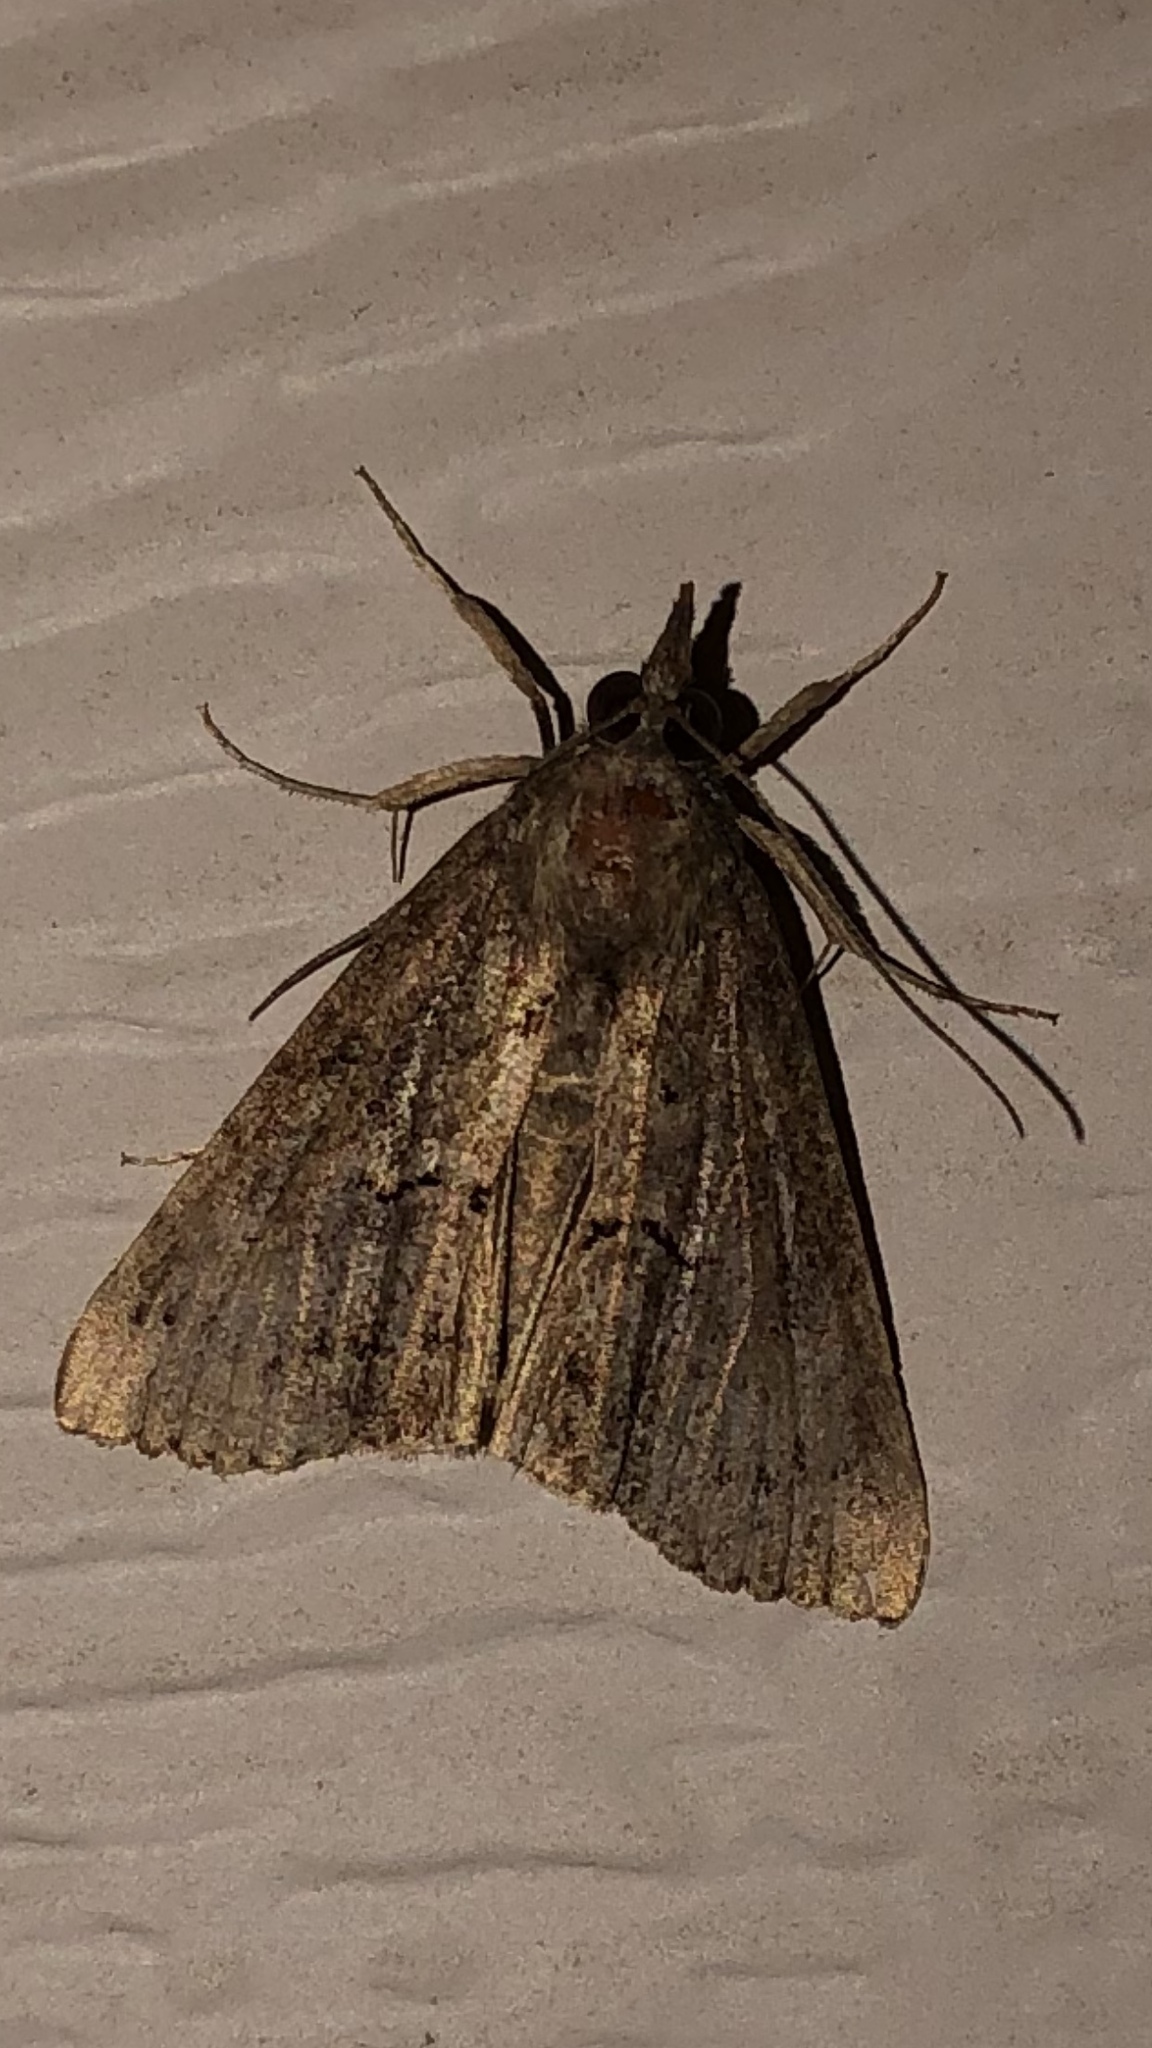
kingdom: Animalia
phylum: Arthropoda
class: Insecta
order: Lepidoptera
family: Erebidae
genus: Hypena
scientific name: Hypena scabra
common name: Green cloverworm
